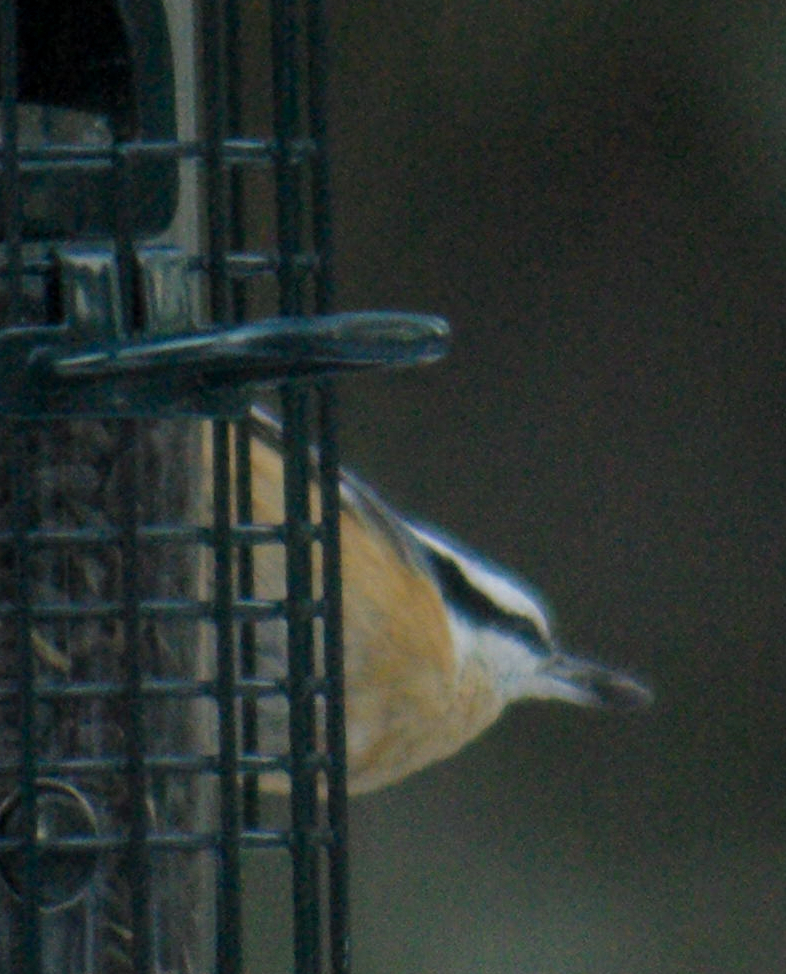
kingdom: Animalia
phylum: Chordata
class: Aves
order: Passeriformes
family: Sittidae
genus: Sitta
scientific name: Sitta canadensis
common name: Red-breasted nuthatch
